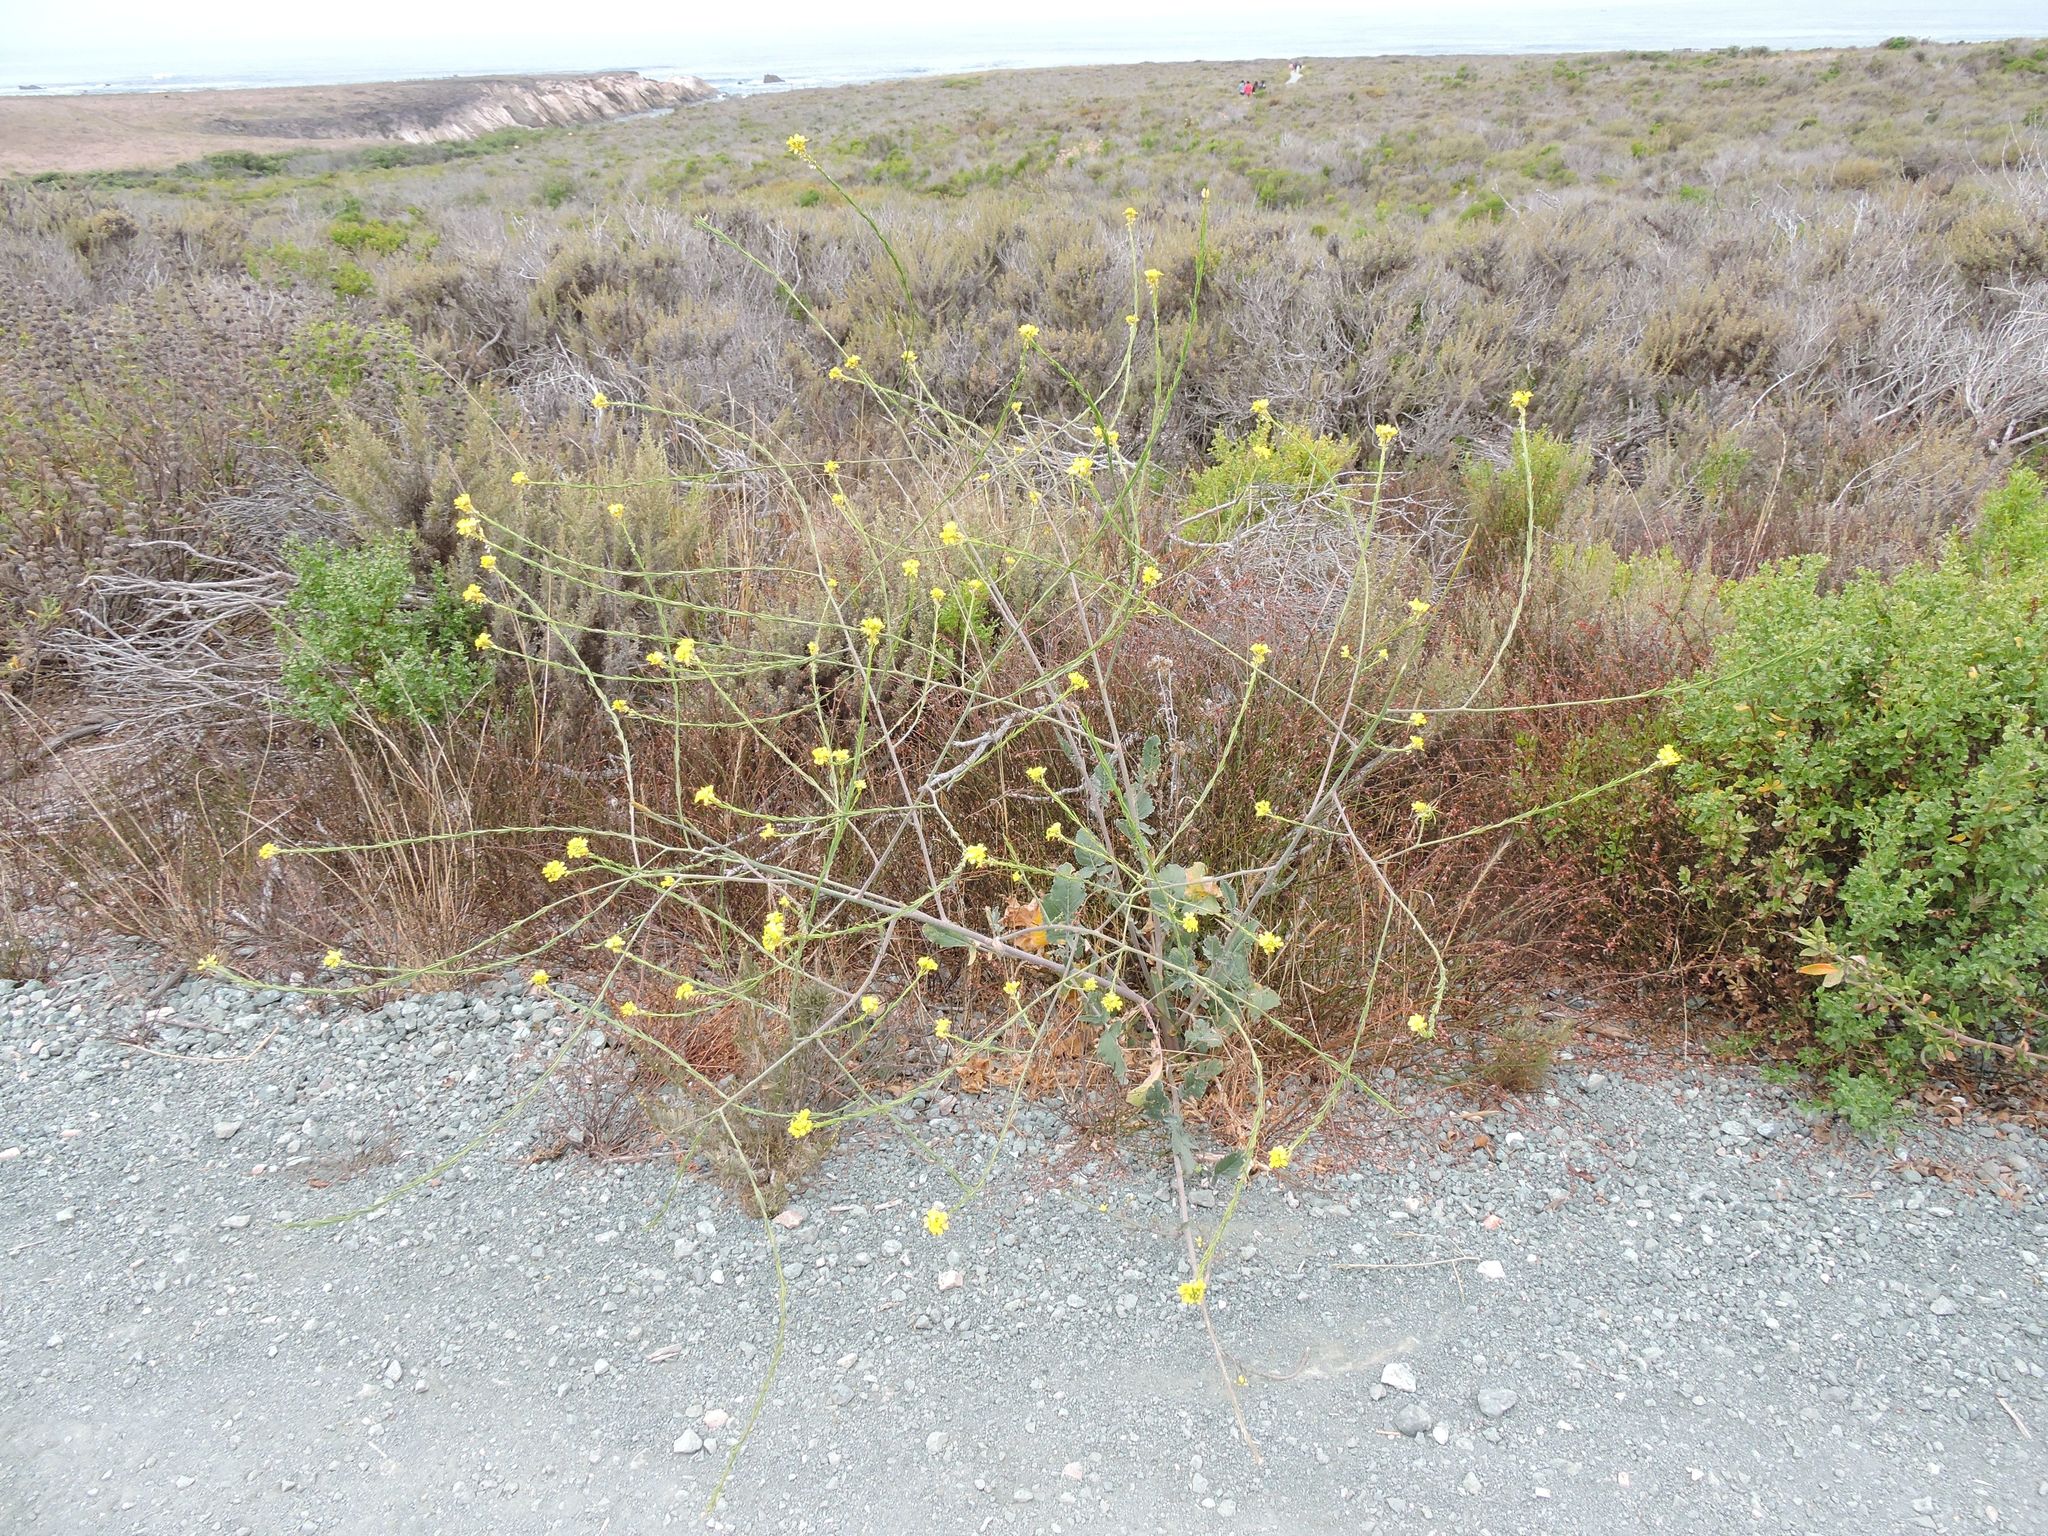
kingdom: Animalia
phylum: Chordata
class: Mammalia
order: Lagomorpha
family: Leporidae
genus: Sylvilagus
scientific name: Sylvilagus bachmani
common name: Brush rabbit
